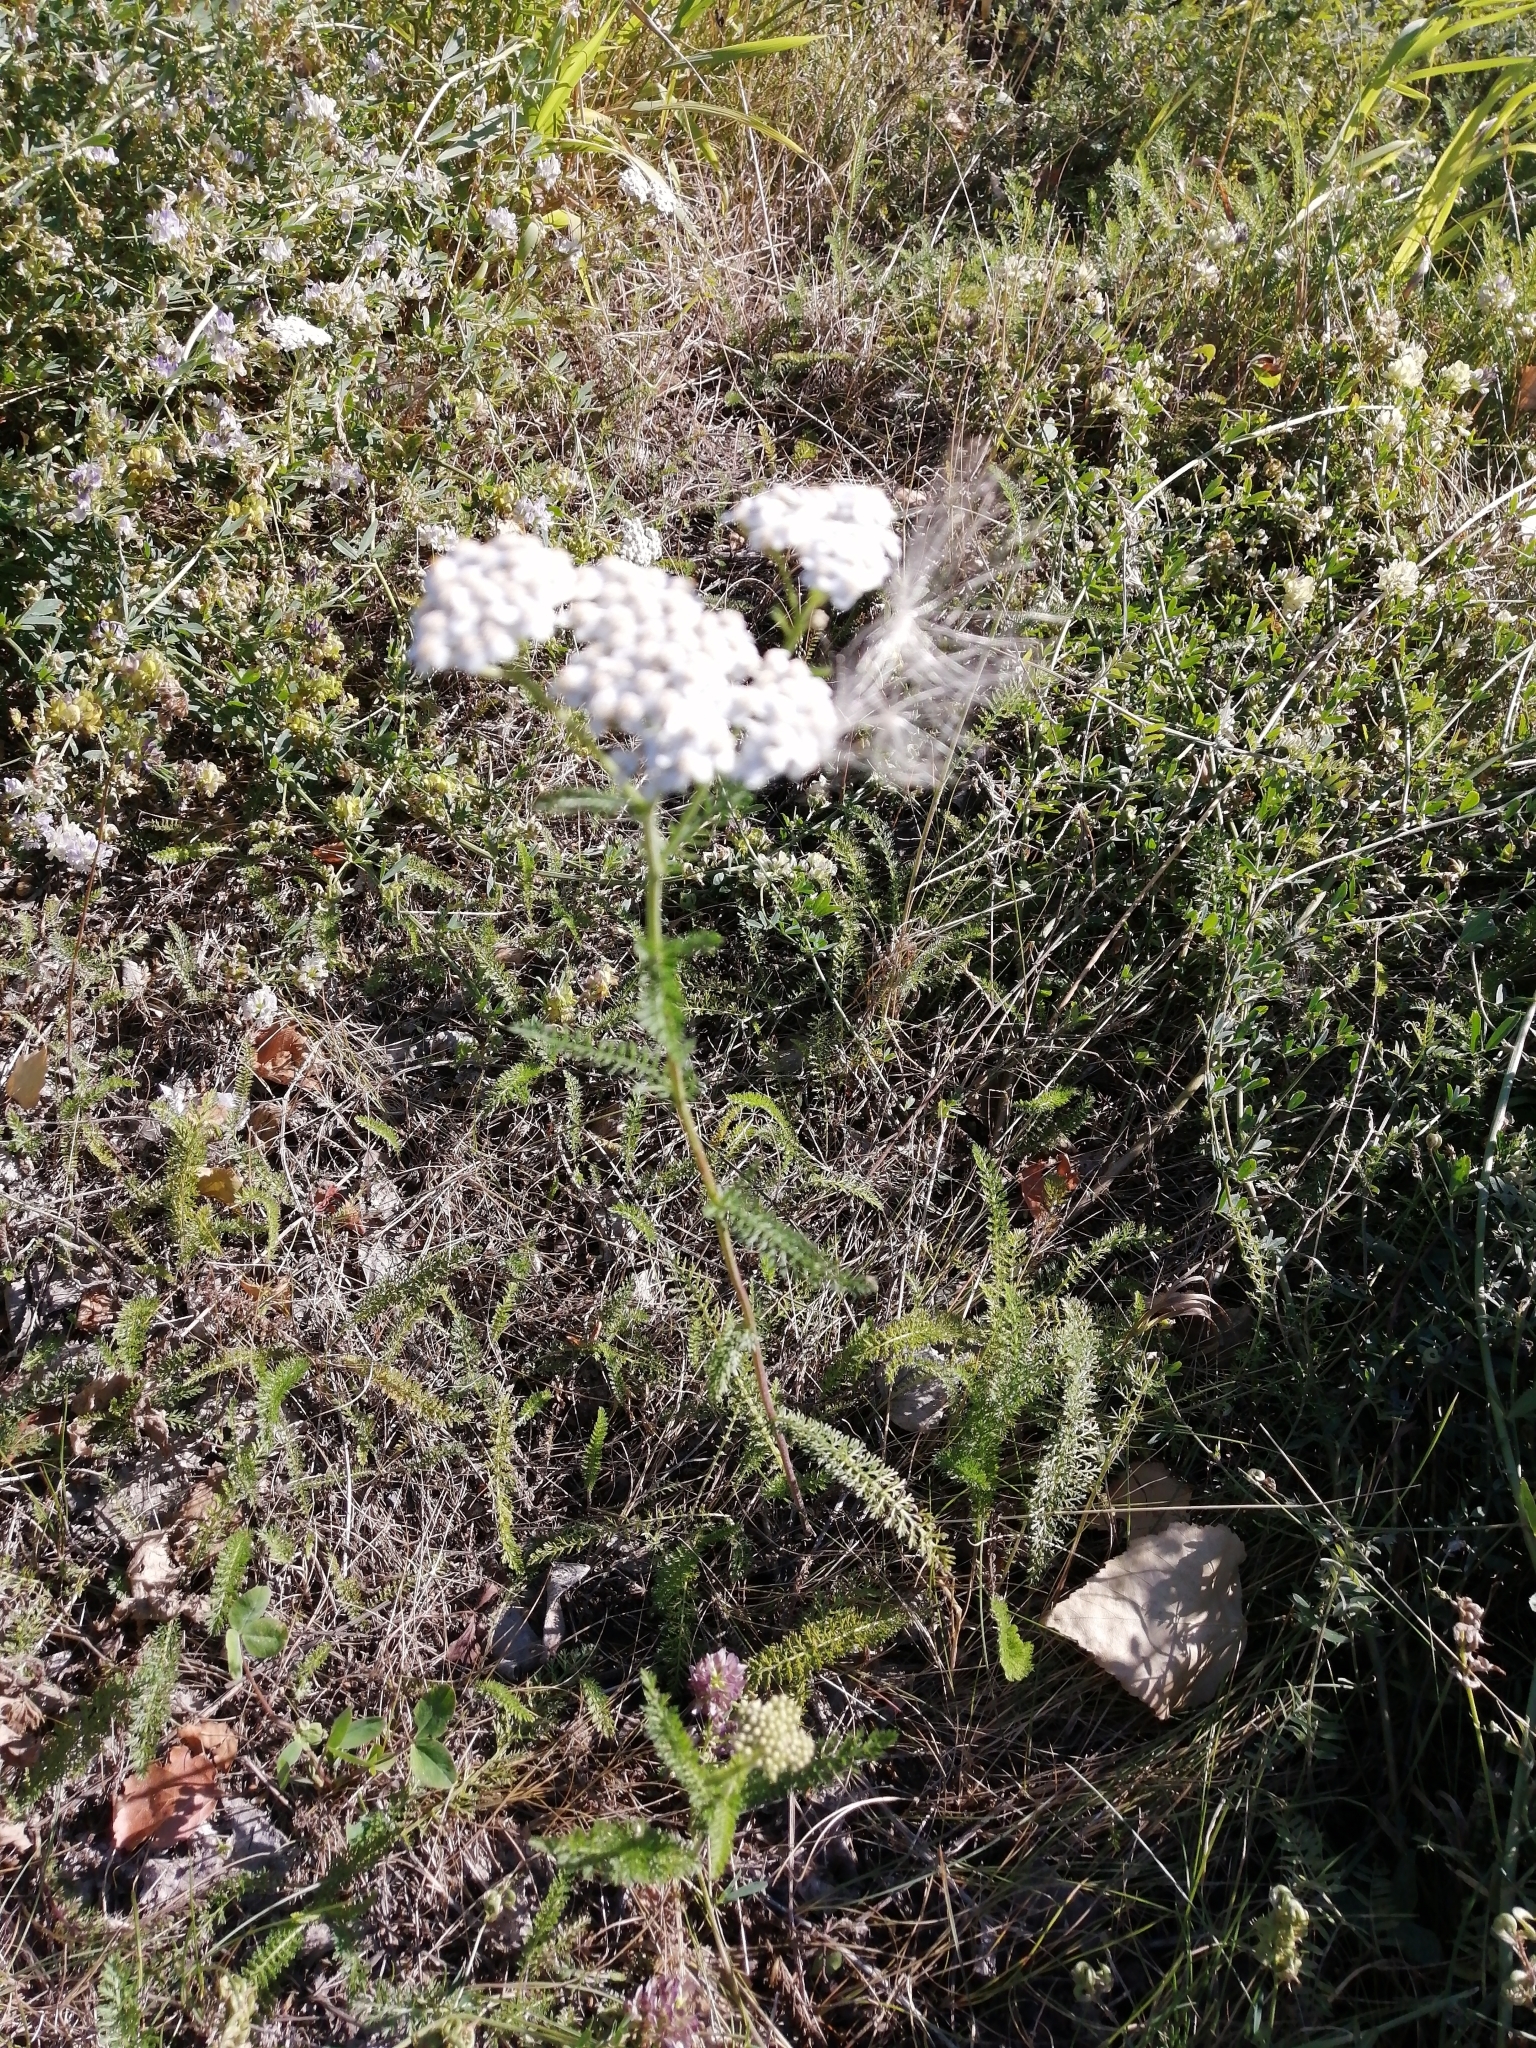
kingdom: Plantae
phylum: Tracheophyta
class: Magnoliopsida
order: Asterales
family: Asteraceae
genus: Achillea
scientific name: Achillea millefolium
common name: Yarrow
